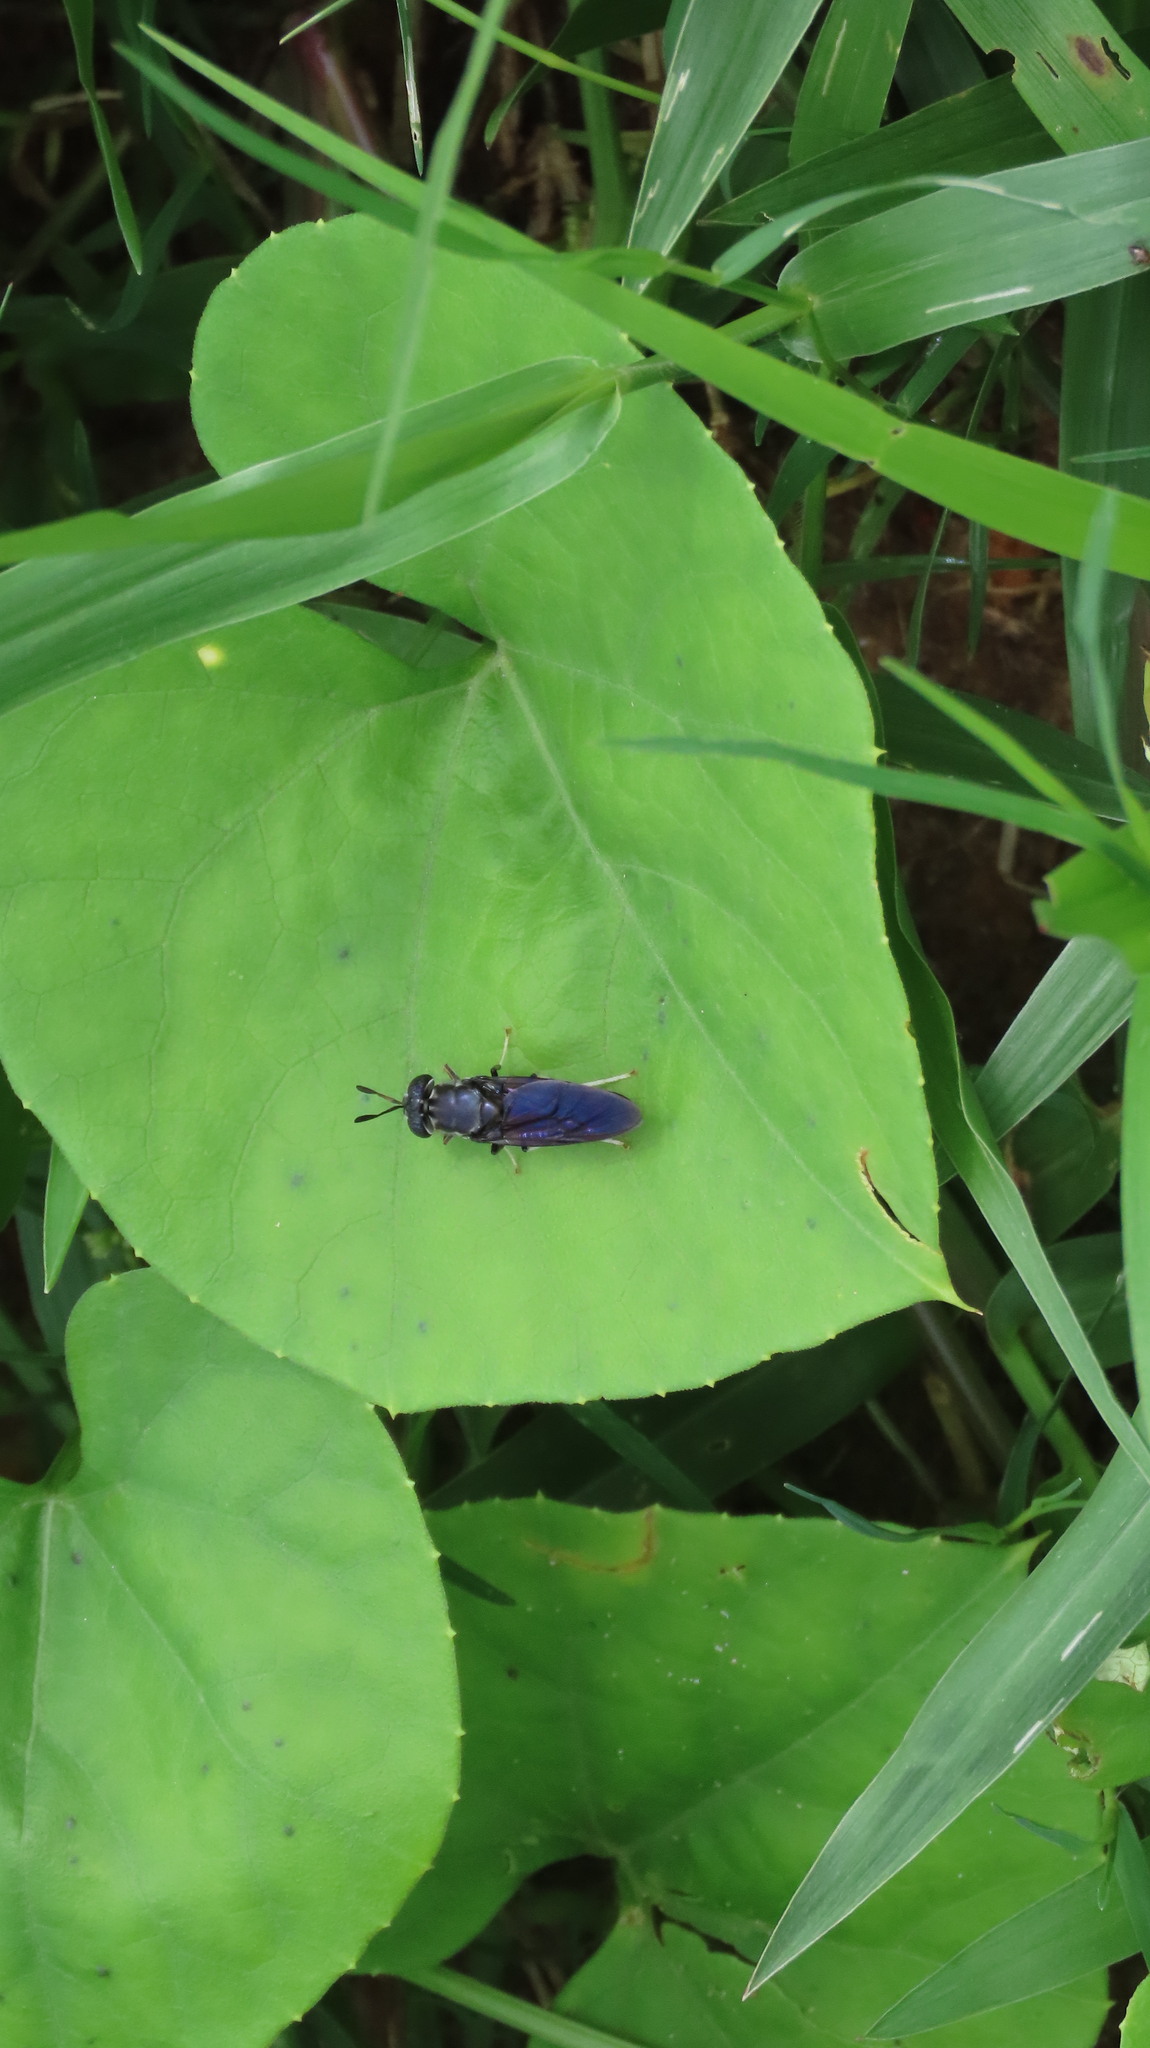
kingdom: Animalia
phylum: Arthropoda
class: Insecta
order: Diptera
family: Stratiomyidae
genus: Hermetia
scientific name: Hermetia illucens
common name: Black soldier fly
